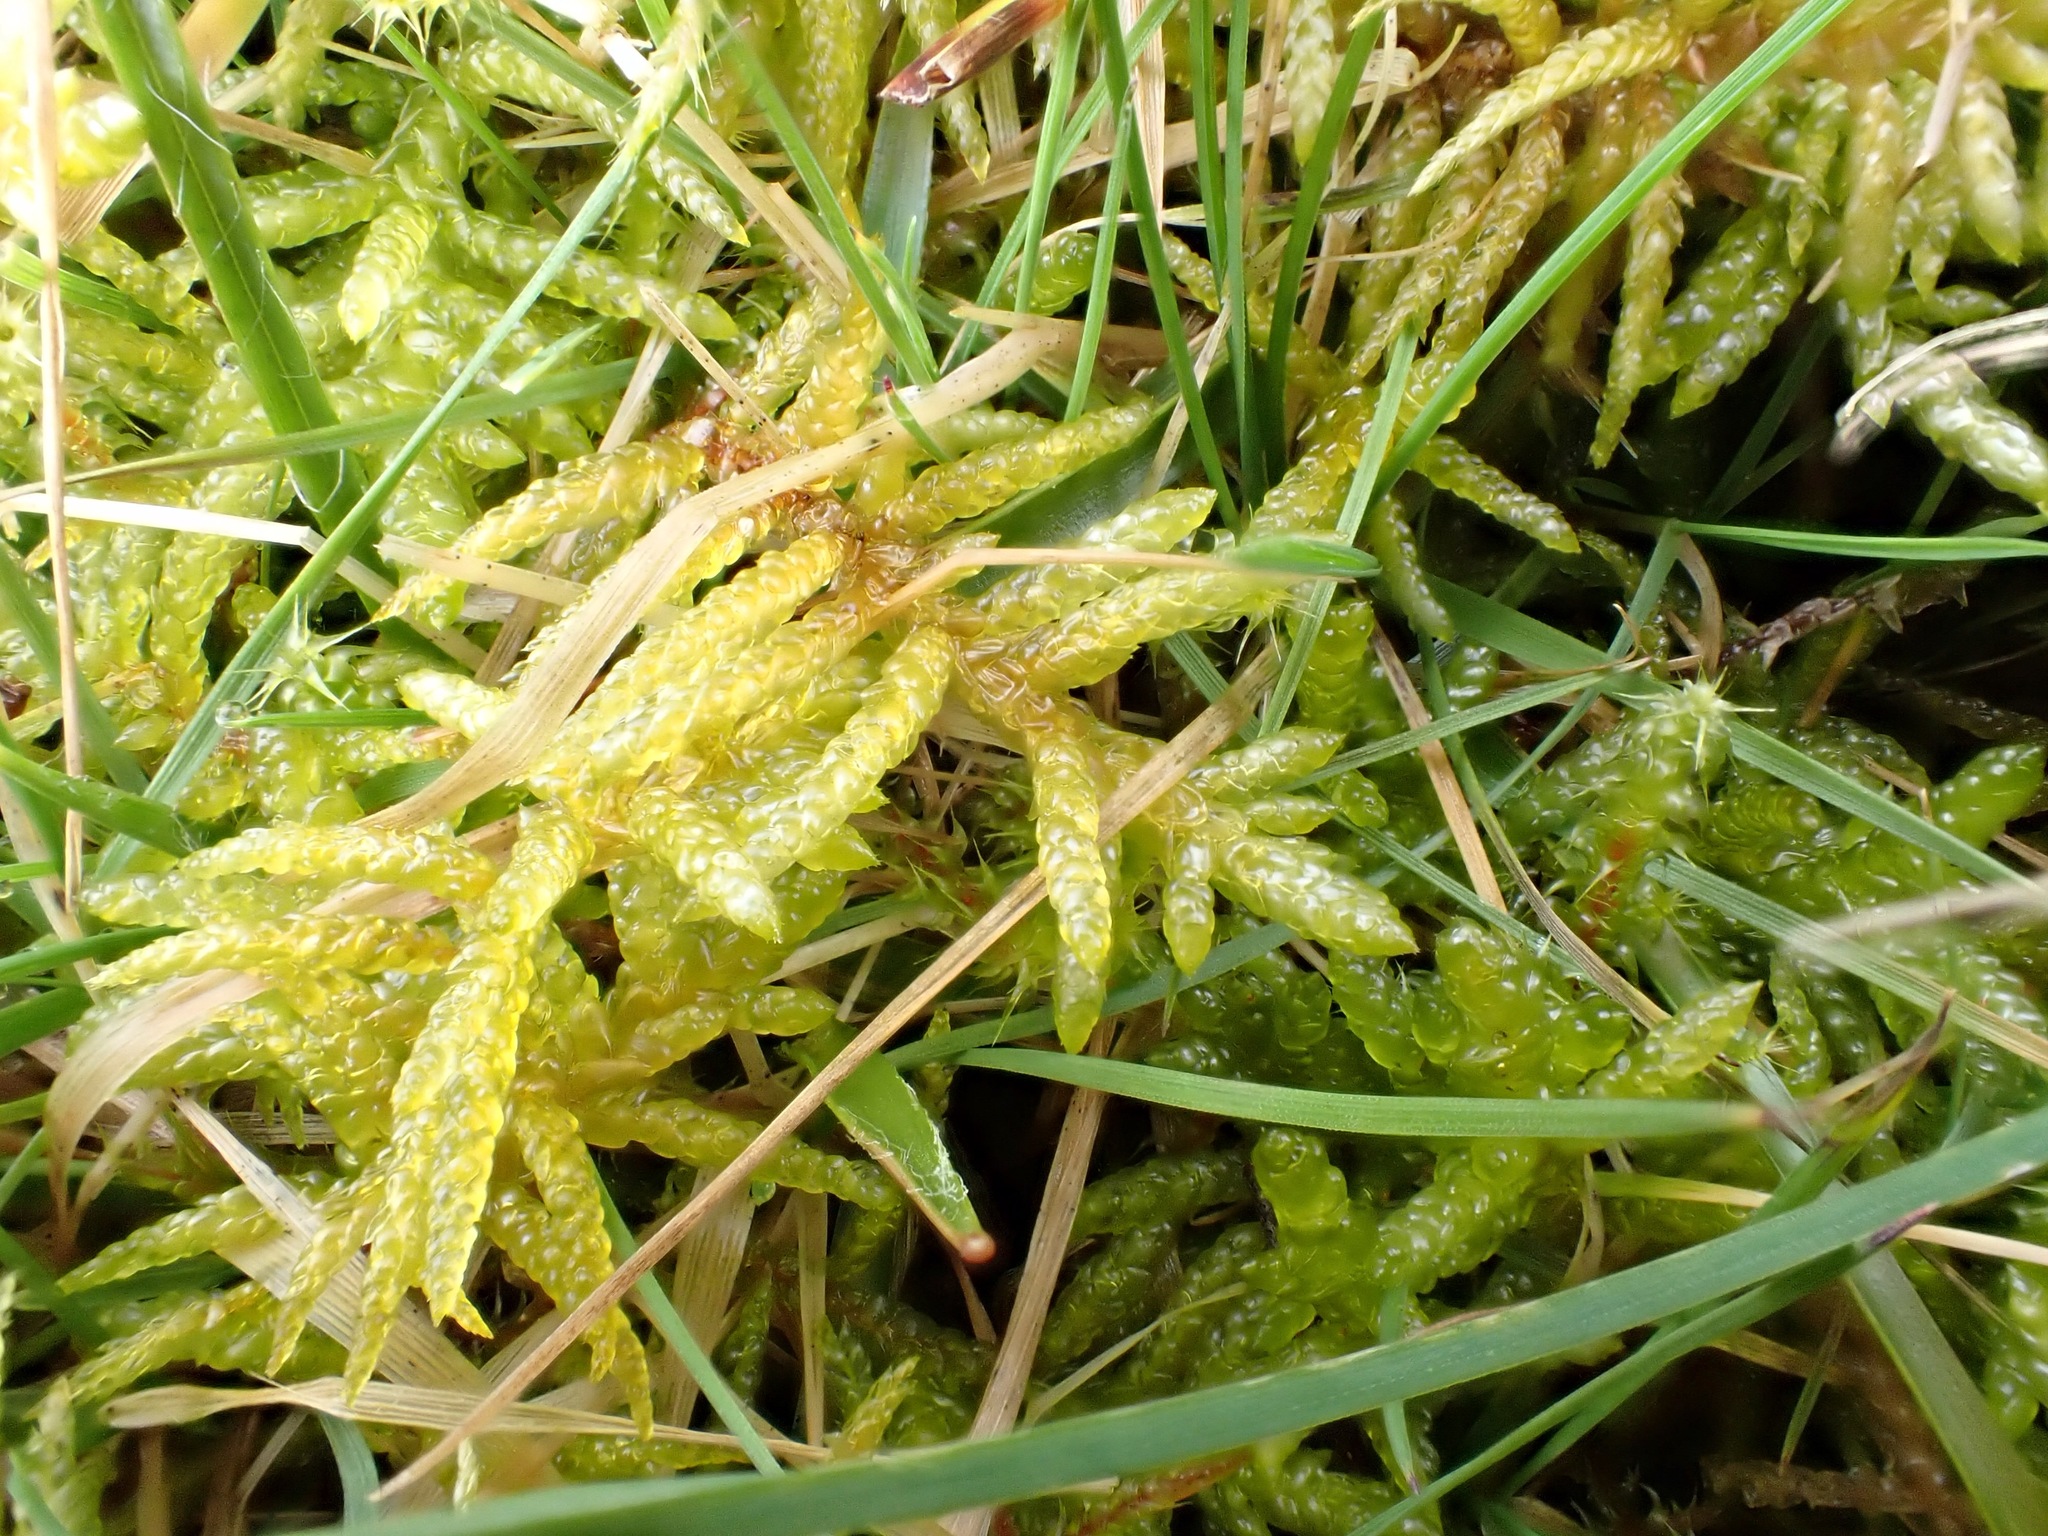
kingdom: Plantae
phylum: Bryophyta
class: Bryopsida
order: Hypnales
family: Brachytheciaceae
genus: Pseudoscleropodium
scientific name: Pseudoscleropodium purum
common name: Neat feather-moss
